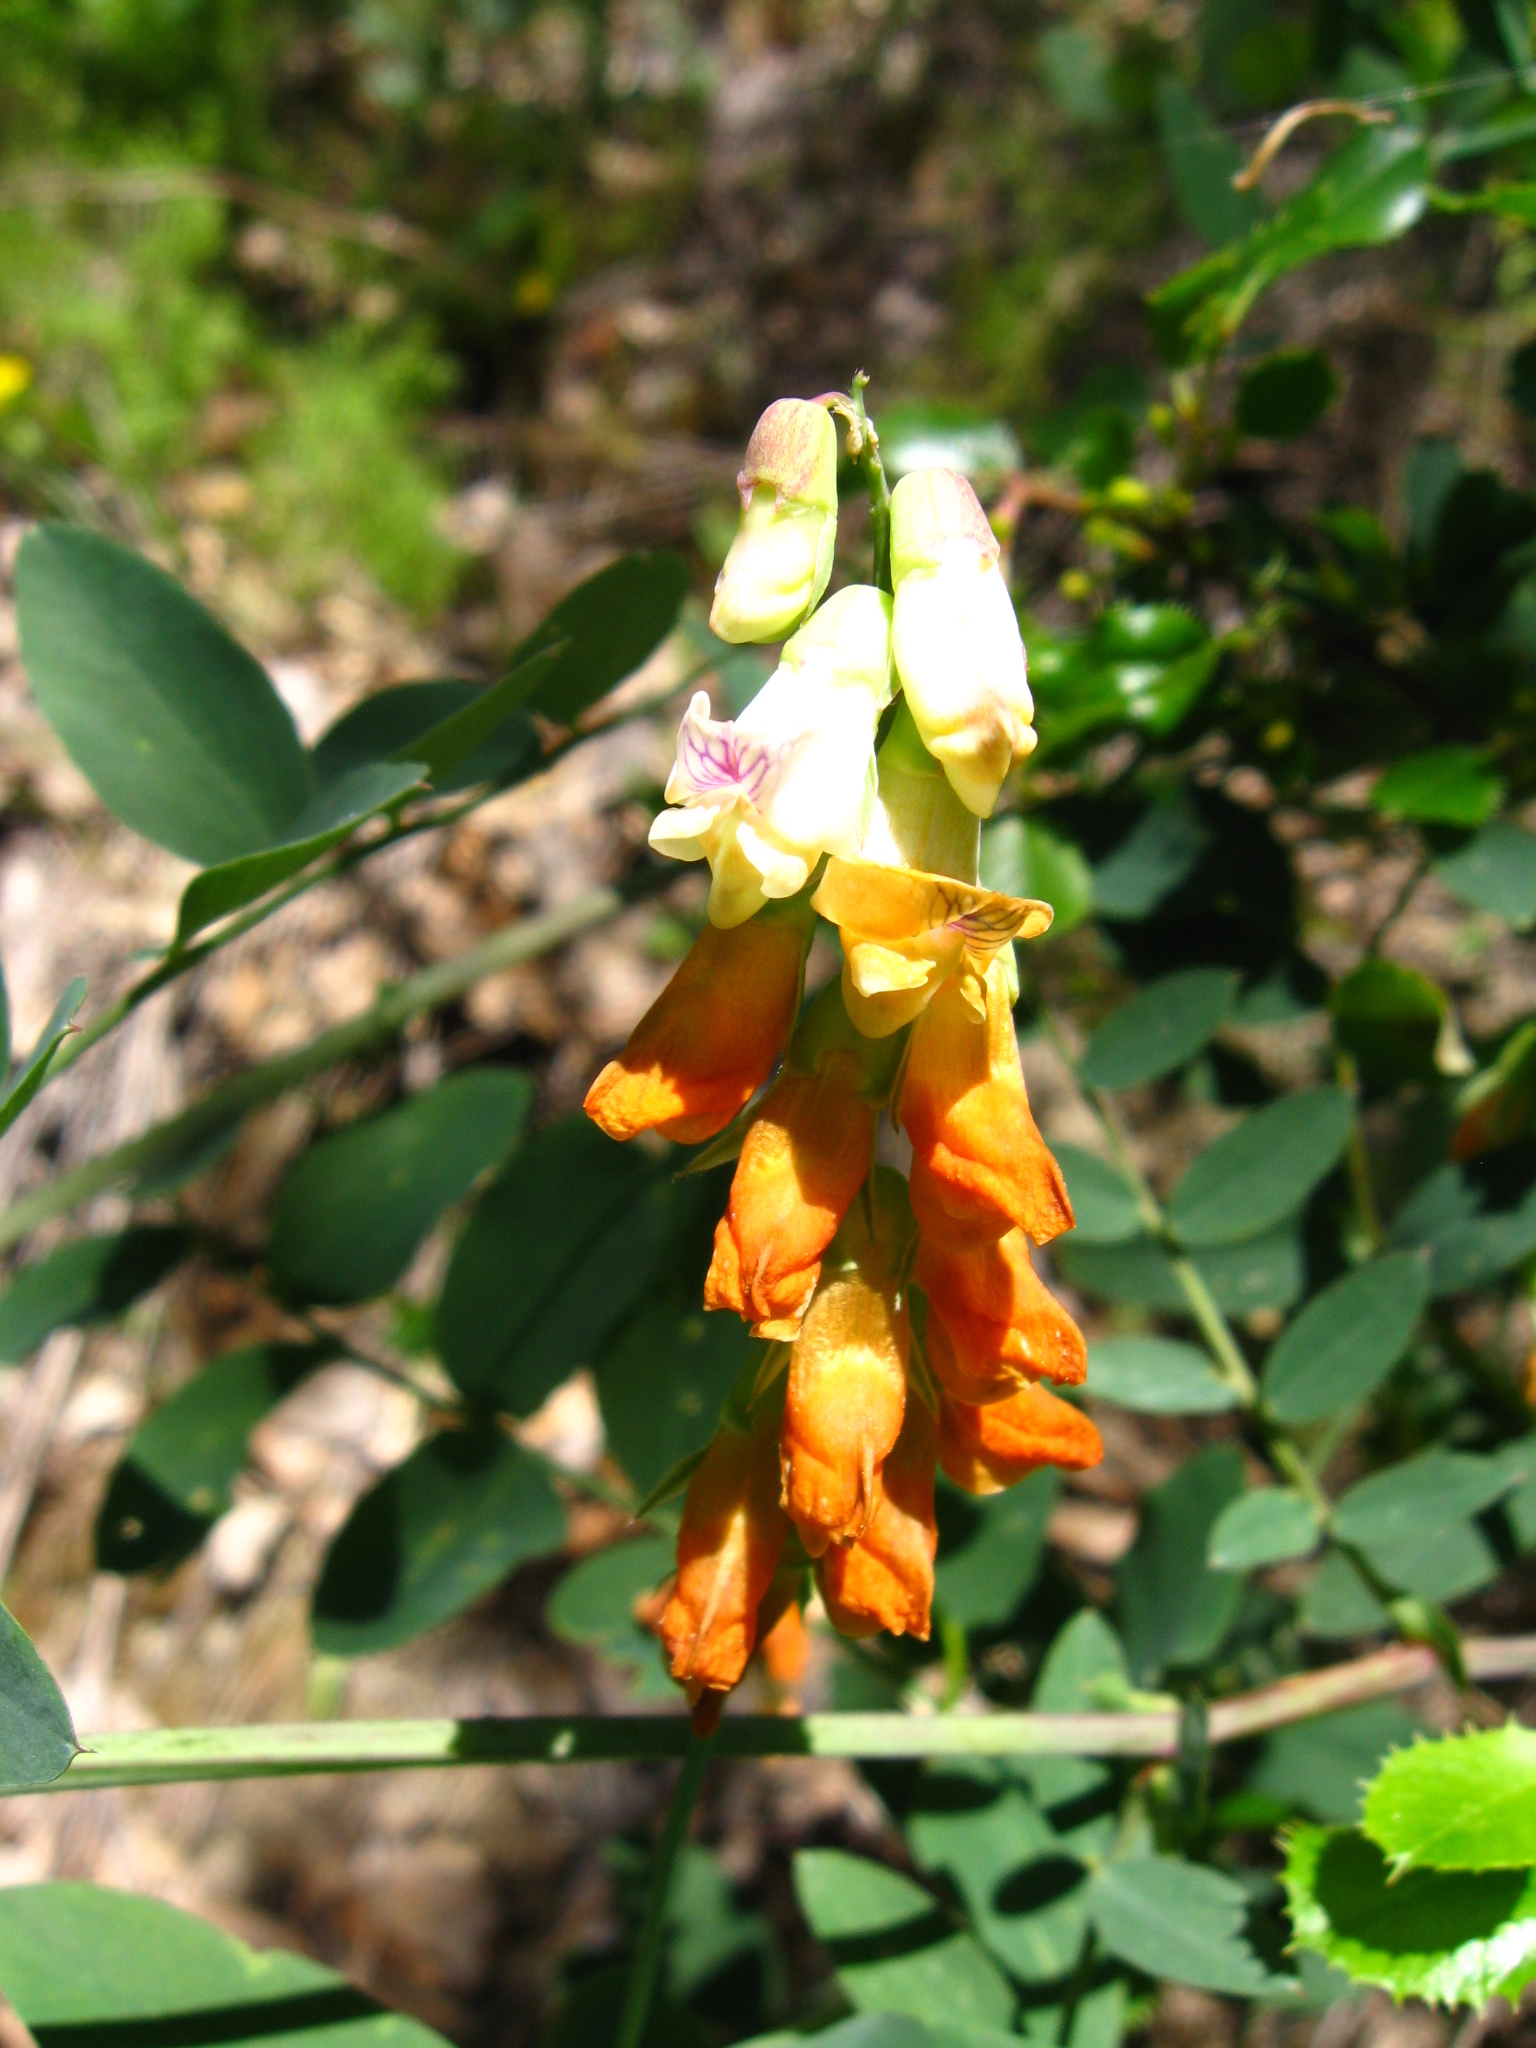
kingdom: Plantae
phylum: Tracheophyta
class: Magnoliopsida
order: Fabales
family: Fabaceae
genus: Lathyrus
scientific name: Lathyrus sulphureus
